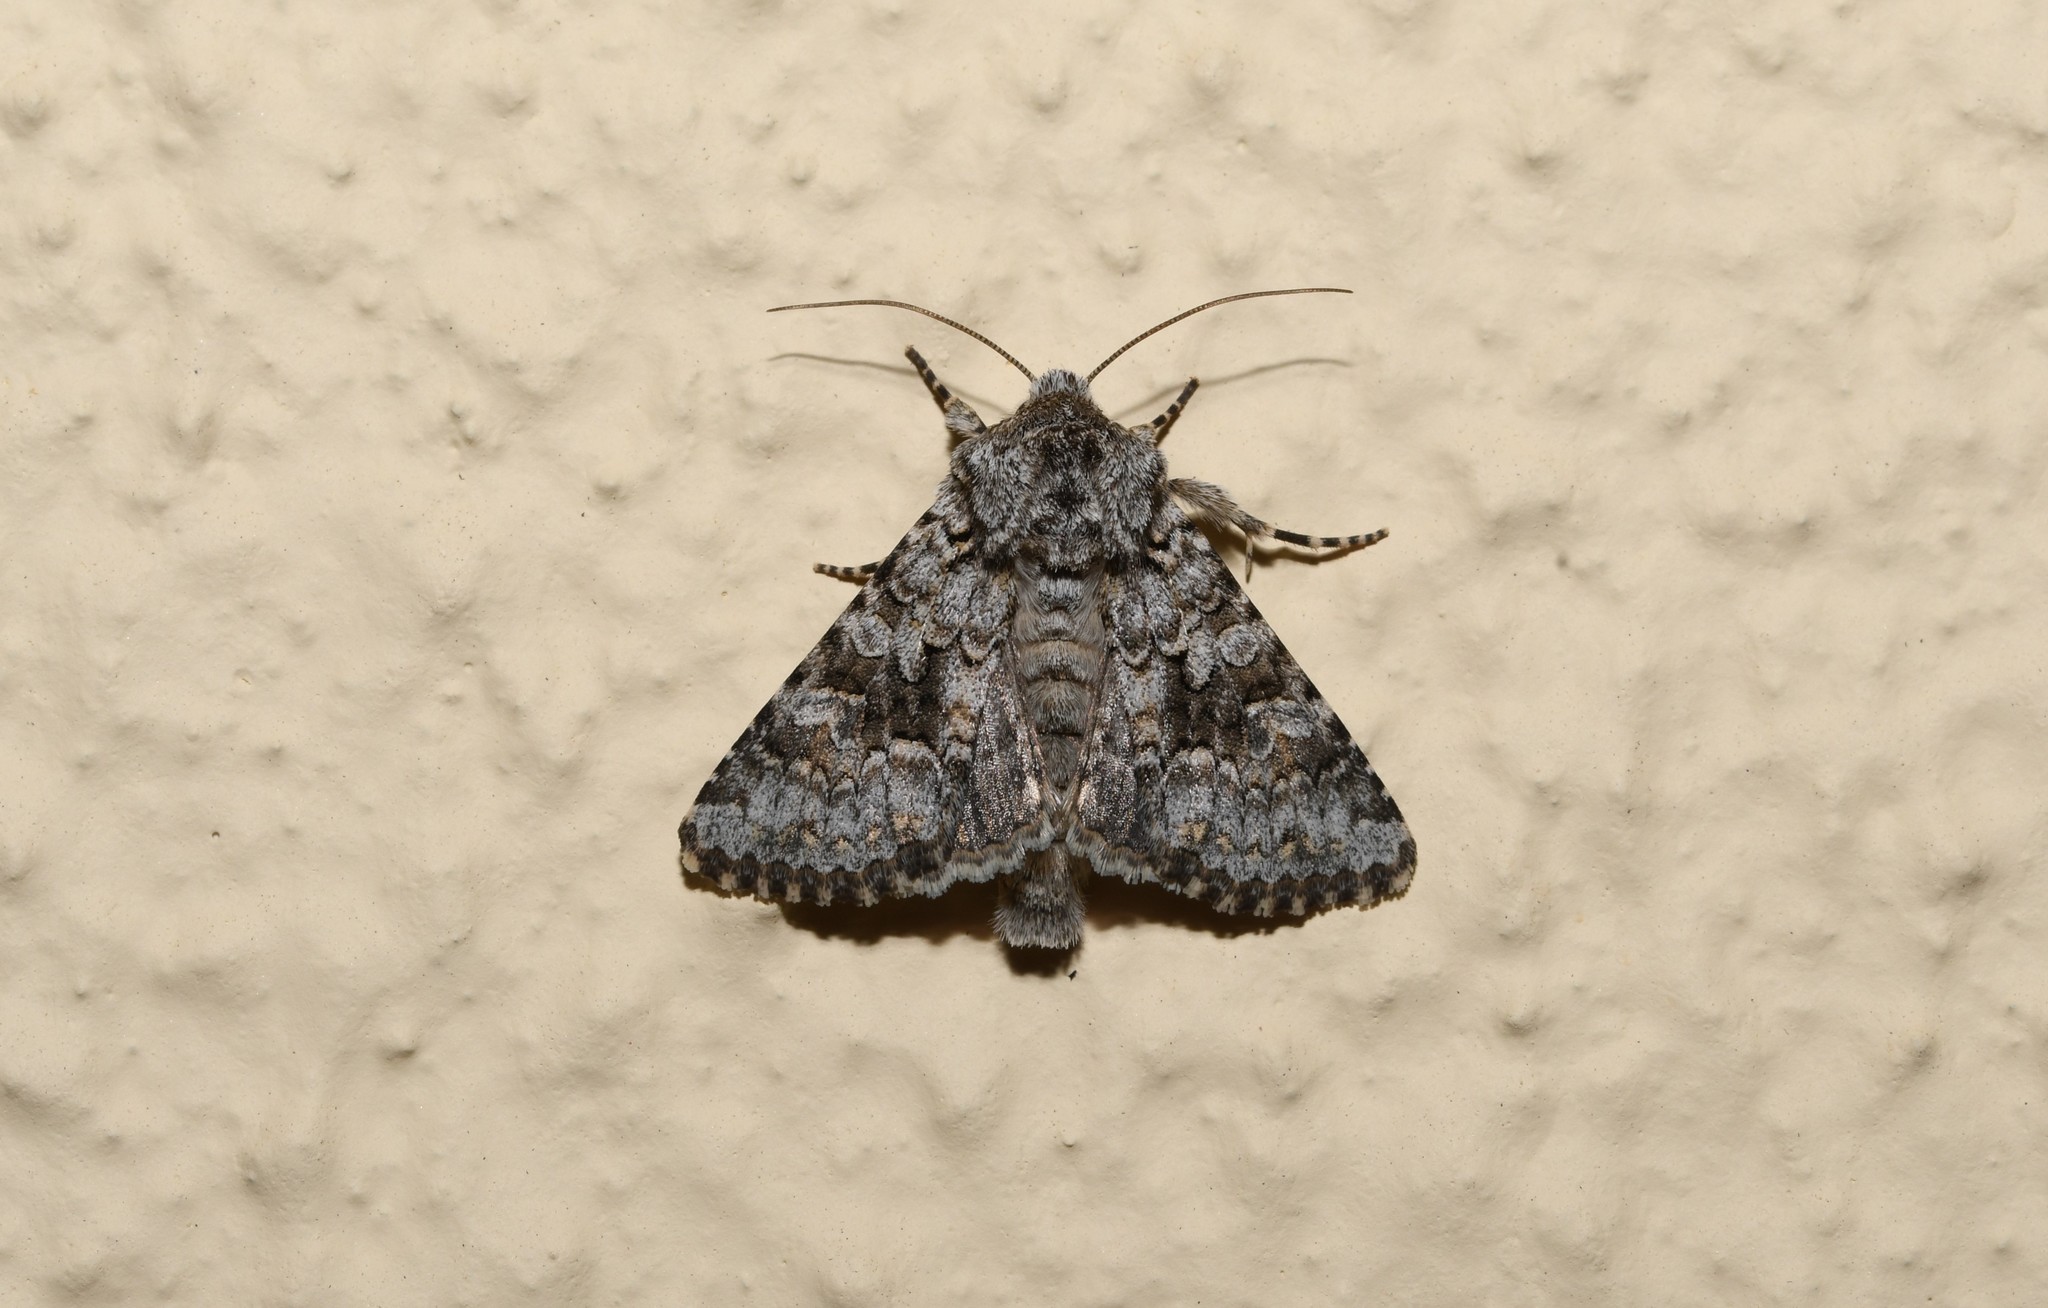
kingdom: Animalia
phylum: Arthropoda
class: Insecta
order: Lepidoptera
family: Noctuidae
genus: Hecatera
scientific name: Hecatera weissi
